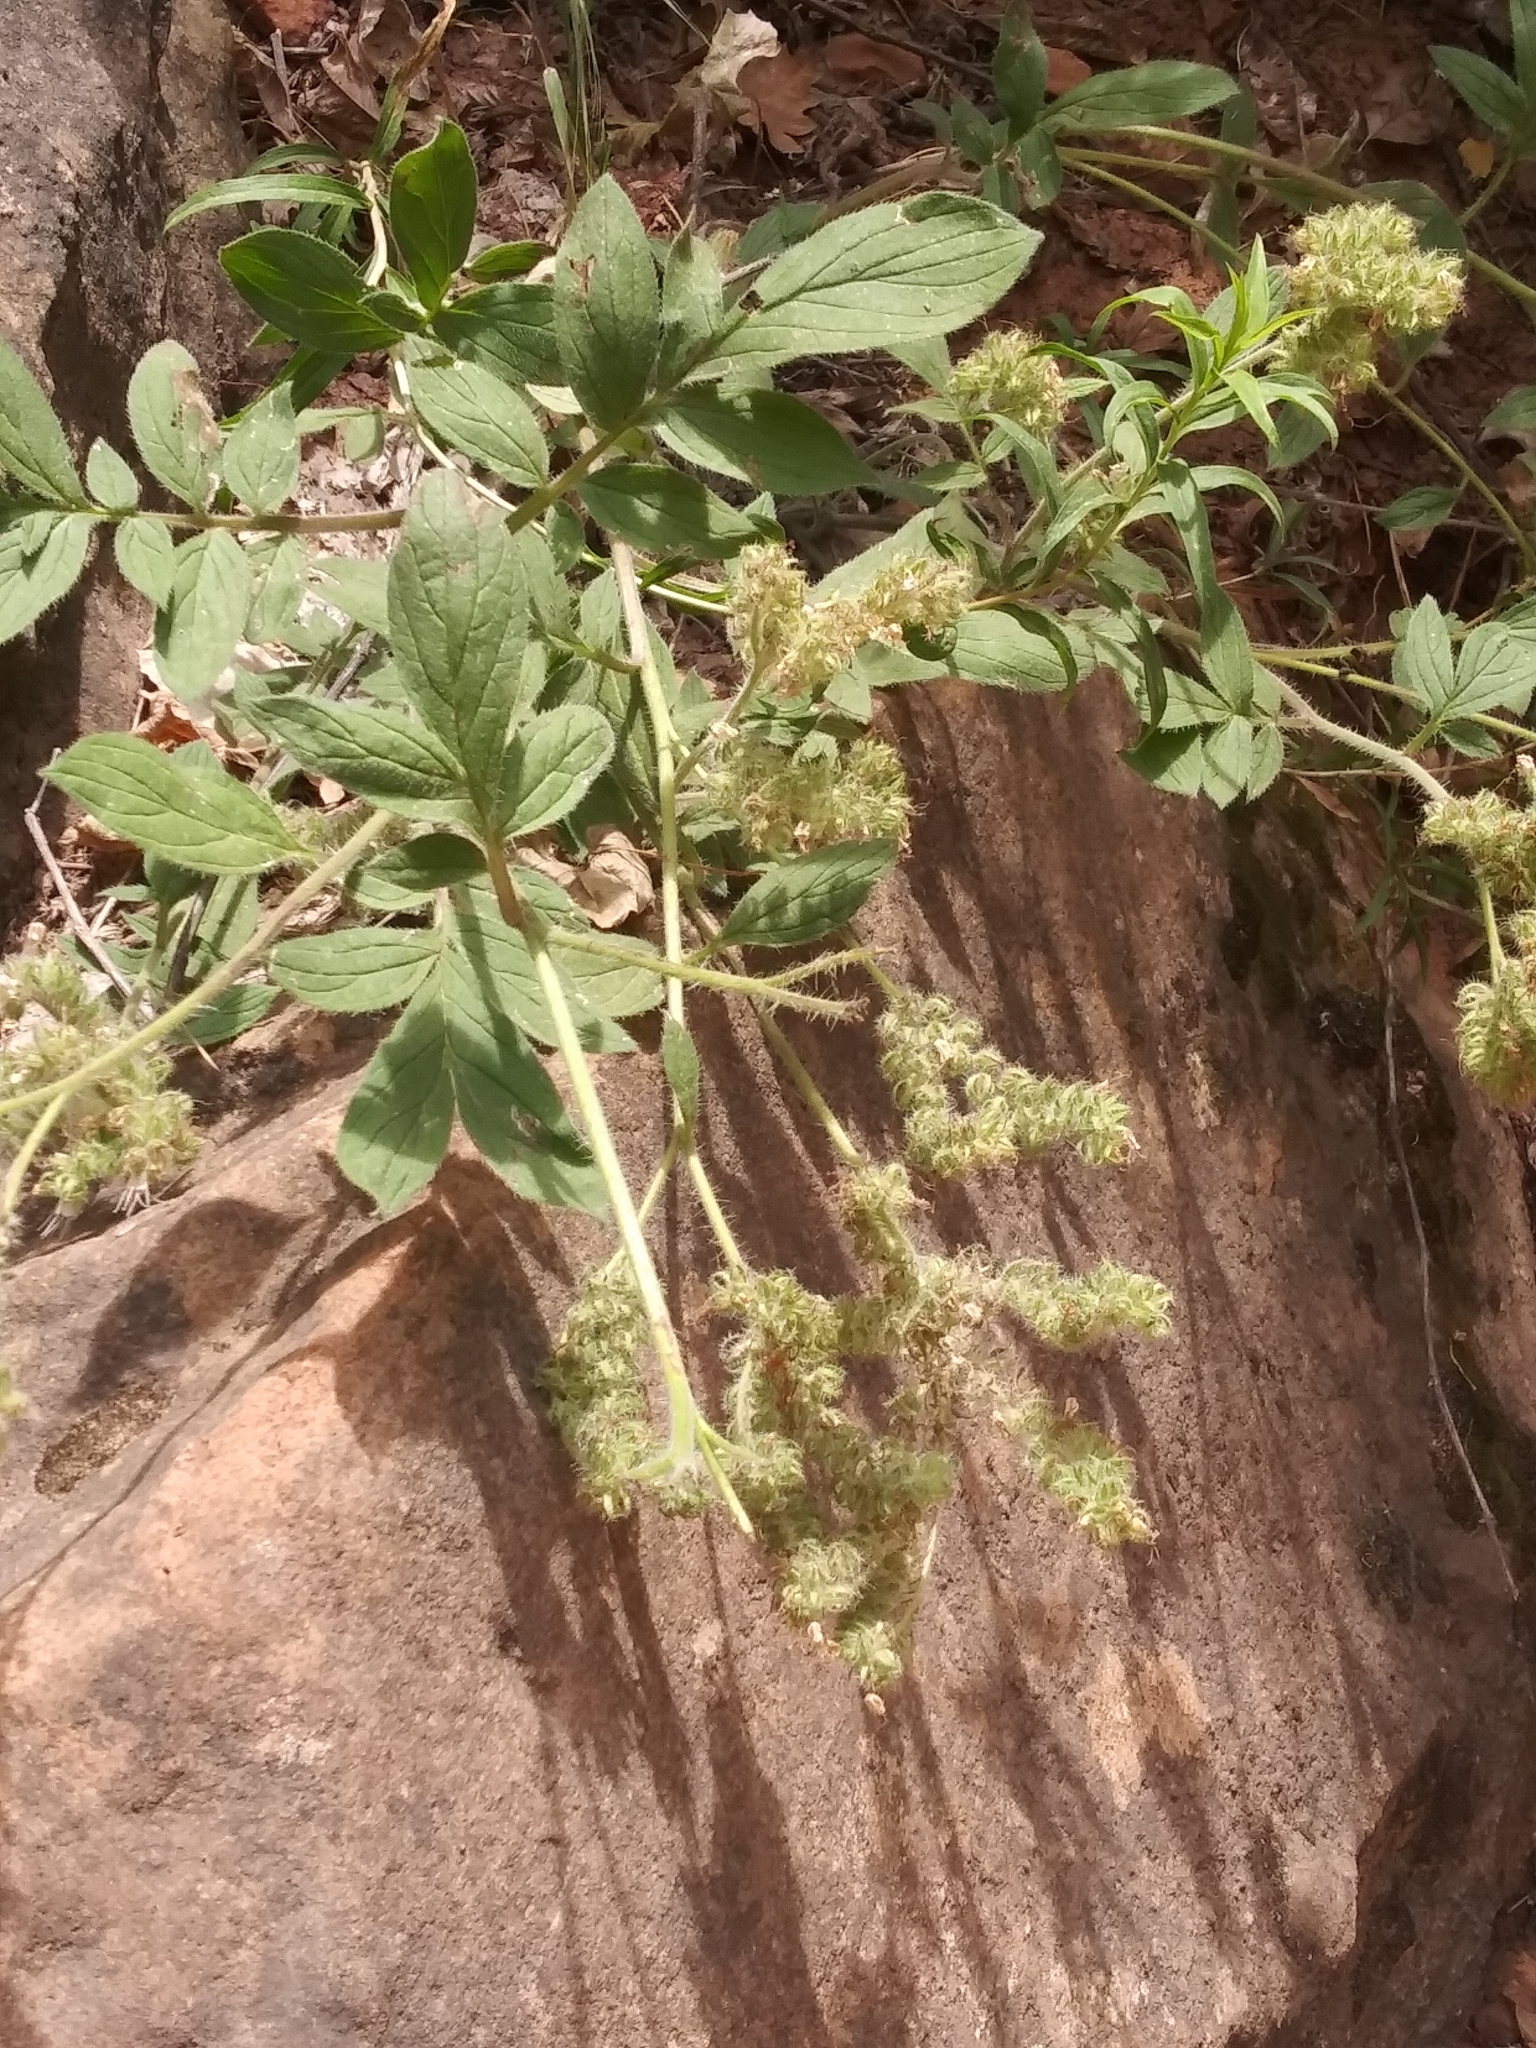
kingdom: Plantae
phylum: Tracheophyta
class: Magnoliopsida
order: Boraginales
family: Hydrophyllaceae
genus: Phacelia
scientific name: Phacelia hastata
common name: Silver-leaved phacelia
